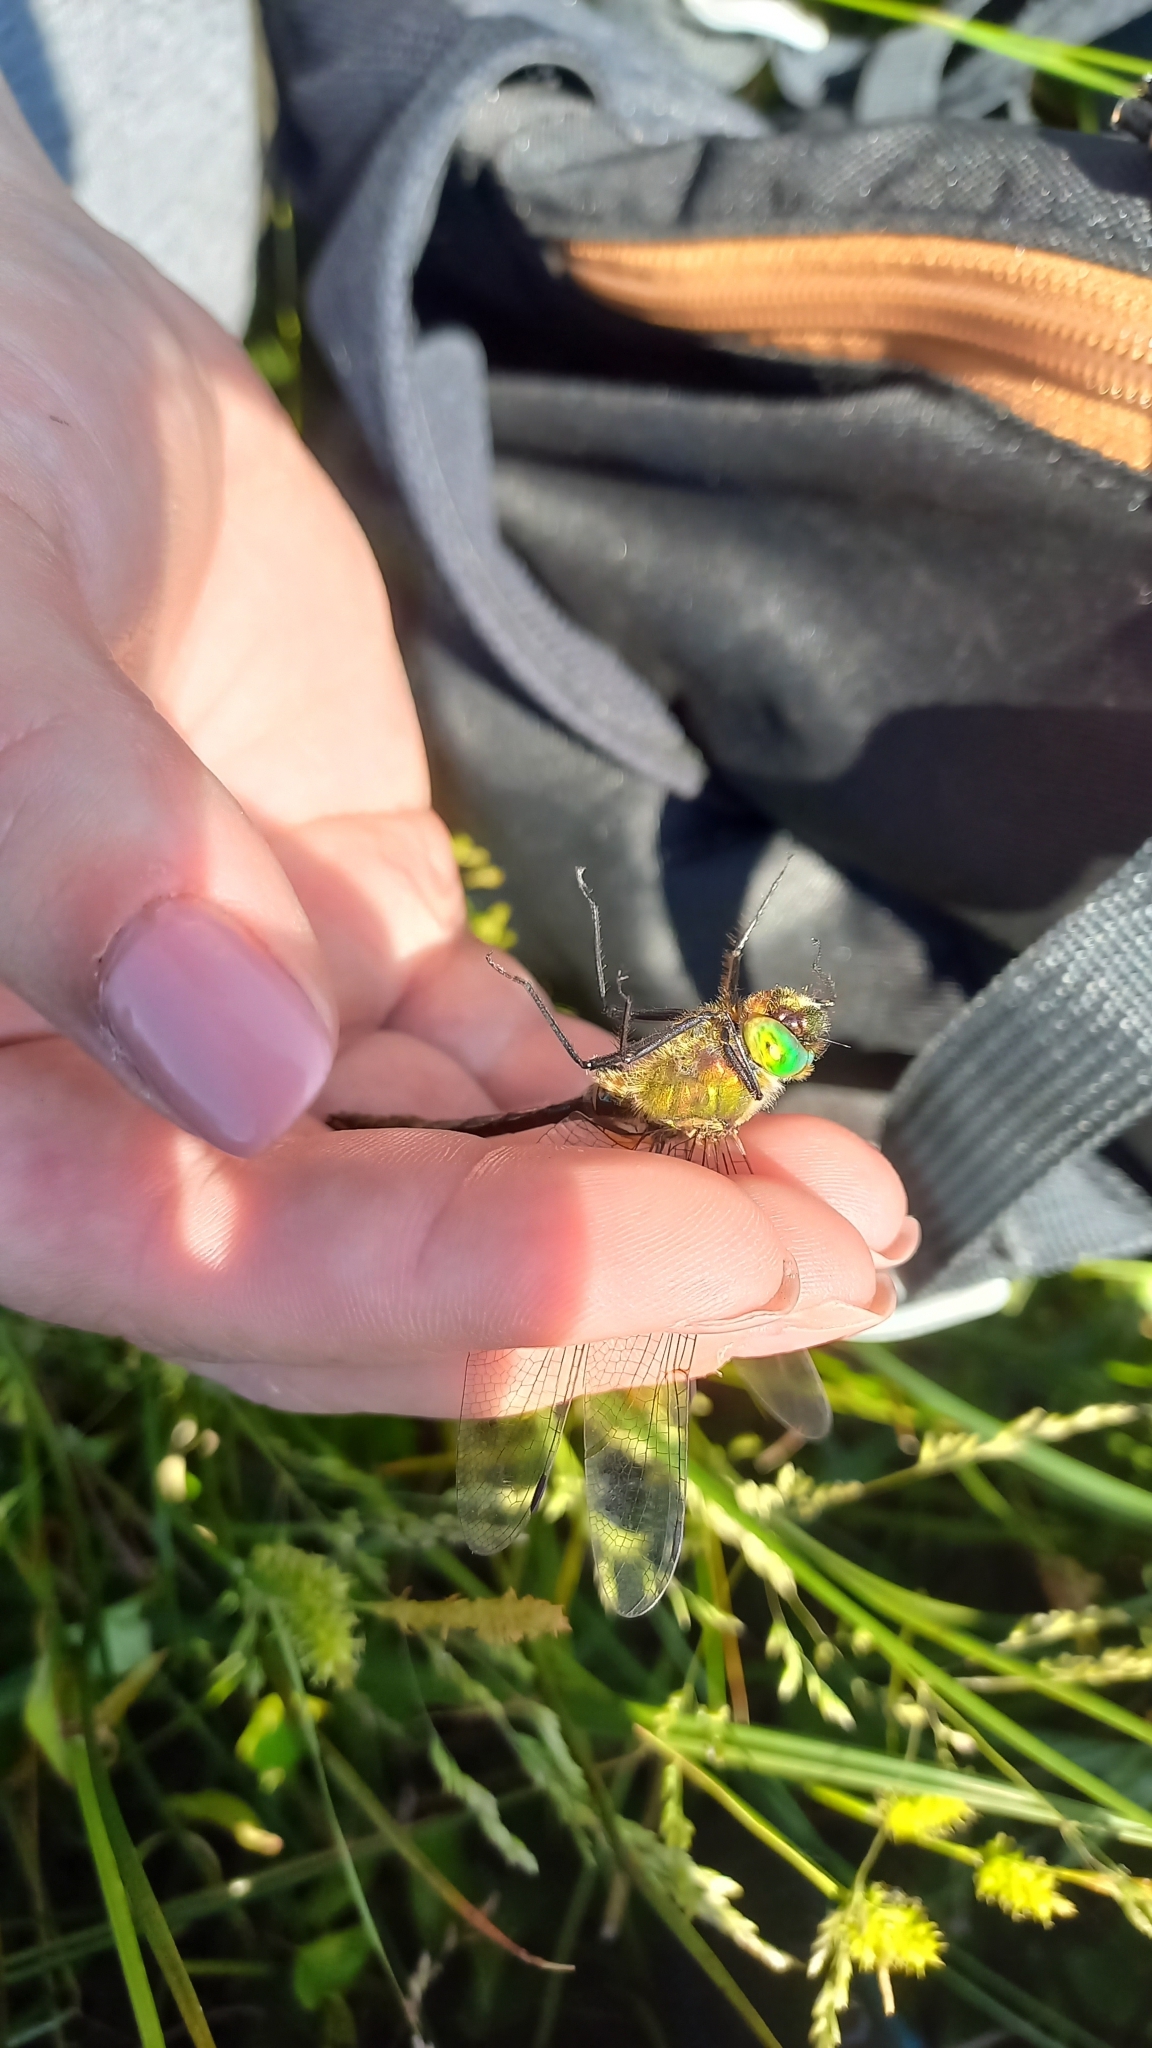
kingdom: Animalia
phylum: Arthropoda
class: Insecta
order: Odonata
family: Corduliidae
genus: Cordulia
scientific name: Cordulia aenea
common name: Downy emerald
